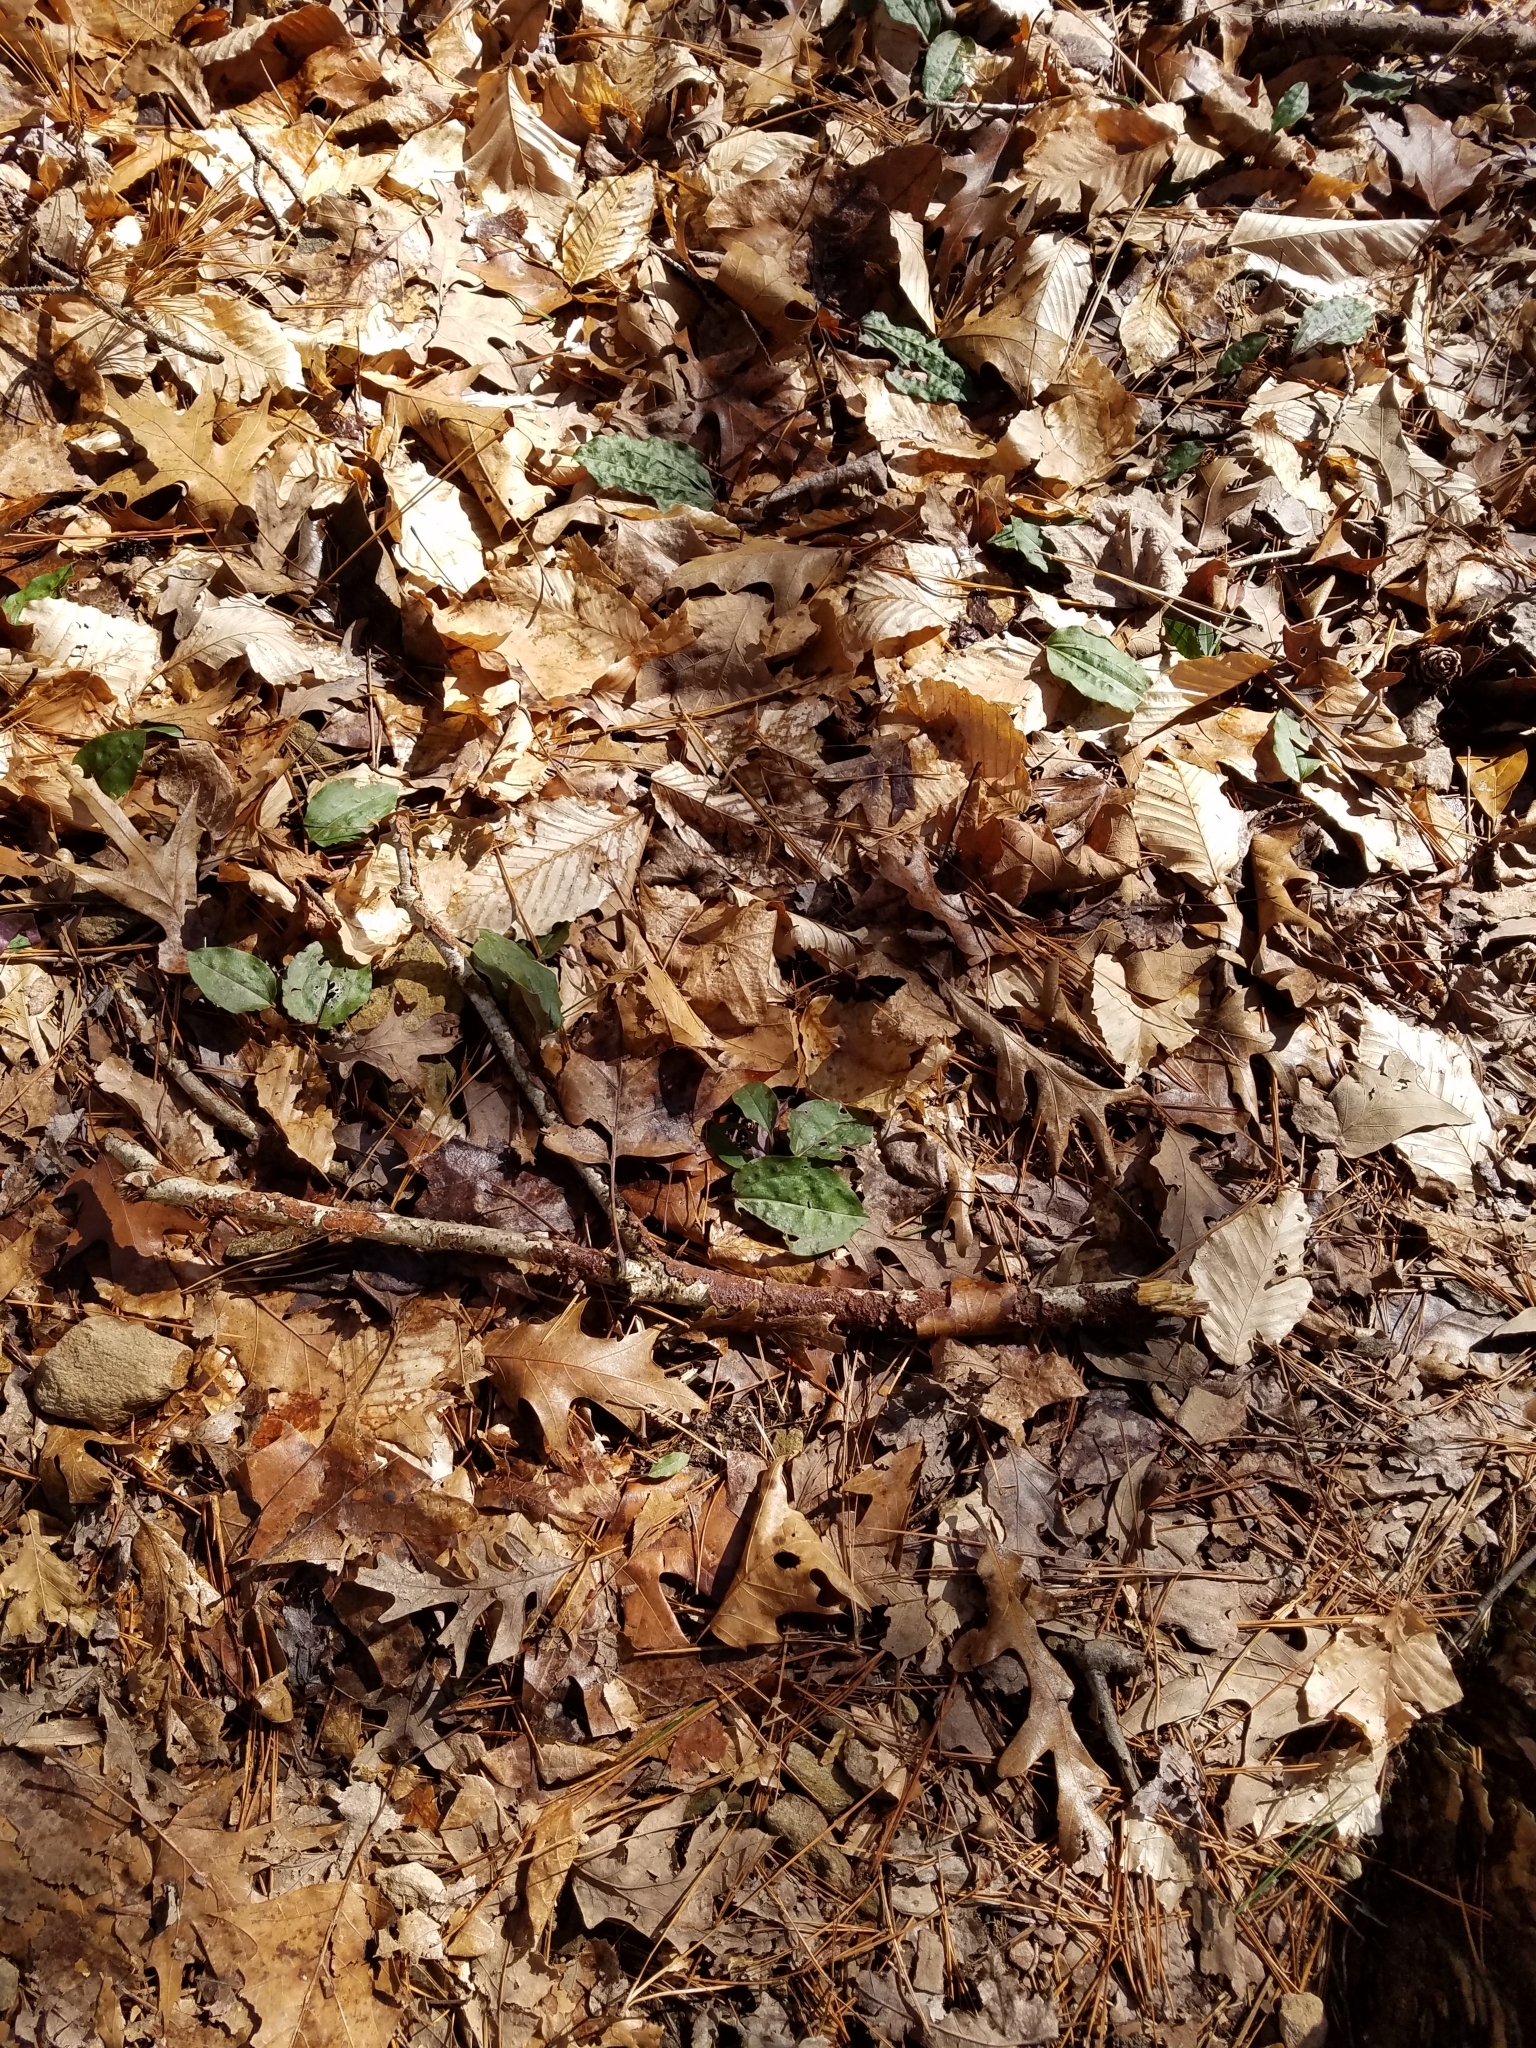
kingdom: Plantae
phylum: Tracheophyta
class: Liliopsida
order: Asparagales
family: Orchidaceae
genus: Tipularia
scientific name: Tipularia discolor
